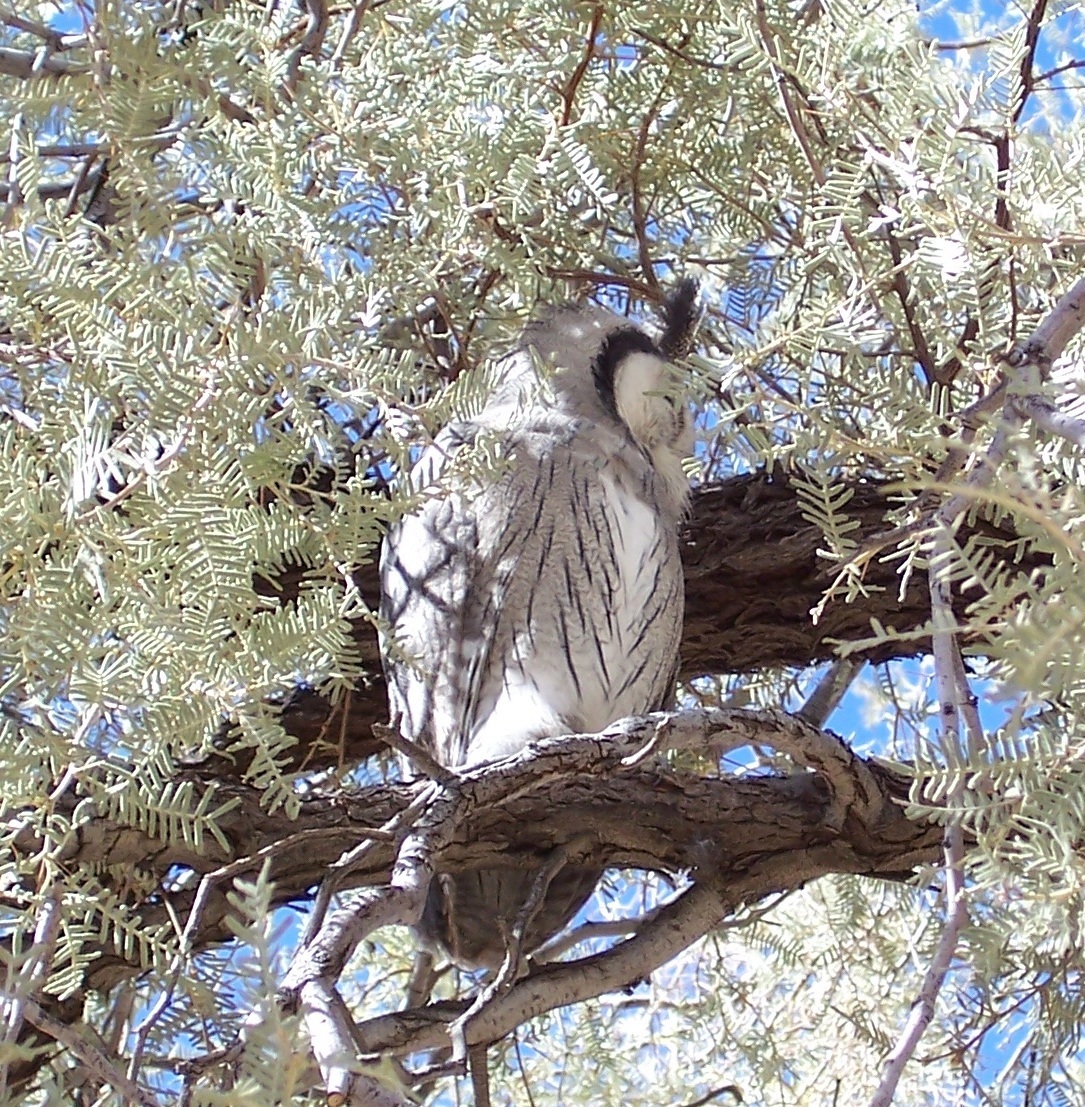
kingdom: Animalia
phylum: Chordata
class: Aves
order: Strigiformes
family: Strigidae
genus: Ptilopsis
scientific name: Ptilopsis granti
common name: Southern white-faced owl
